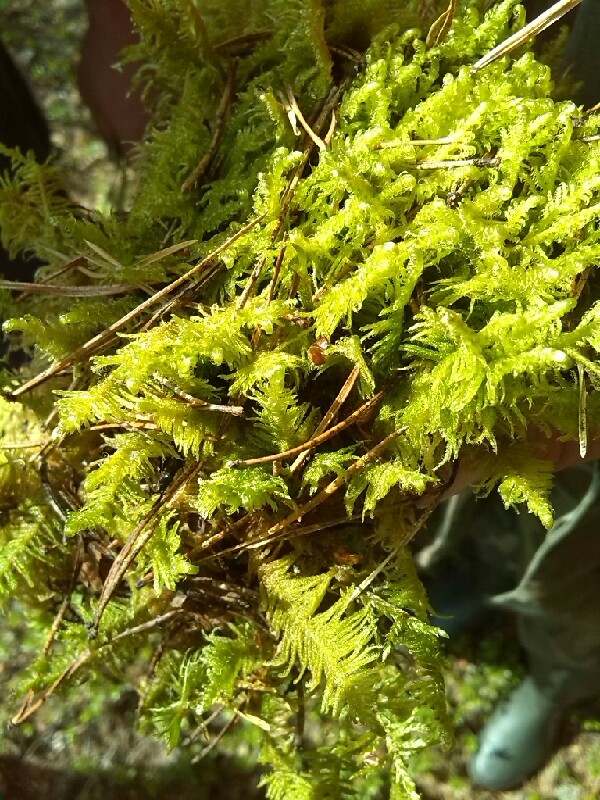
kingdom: Plantae
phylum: Bryophyta
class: Bryopsida
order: Hypnales
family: Pylaisiaceae
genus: Ptilium
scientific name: Ptilium crista-castrensis
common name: Knight's plume moss
